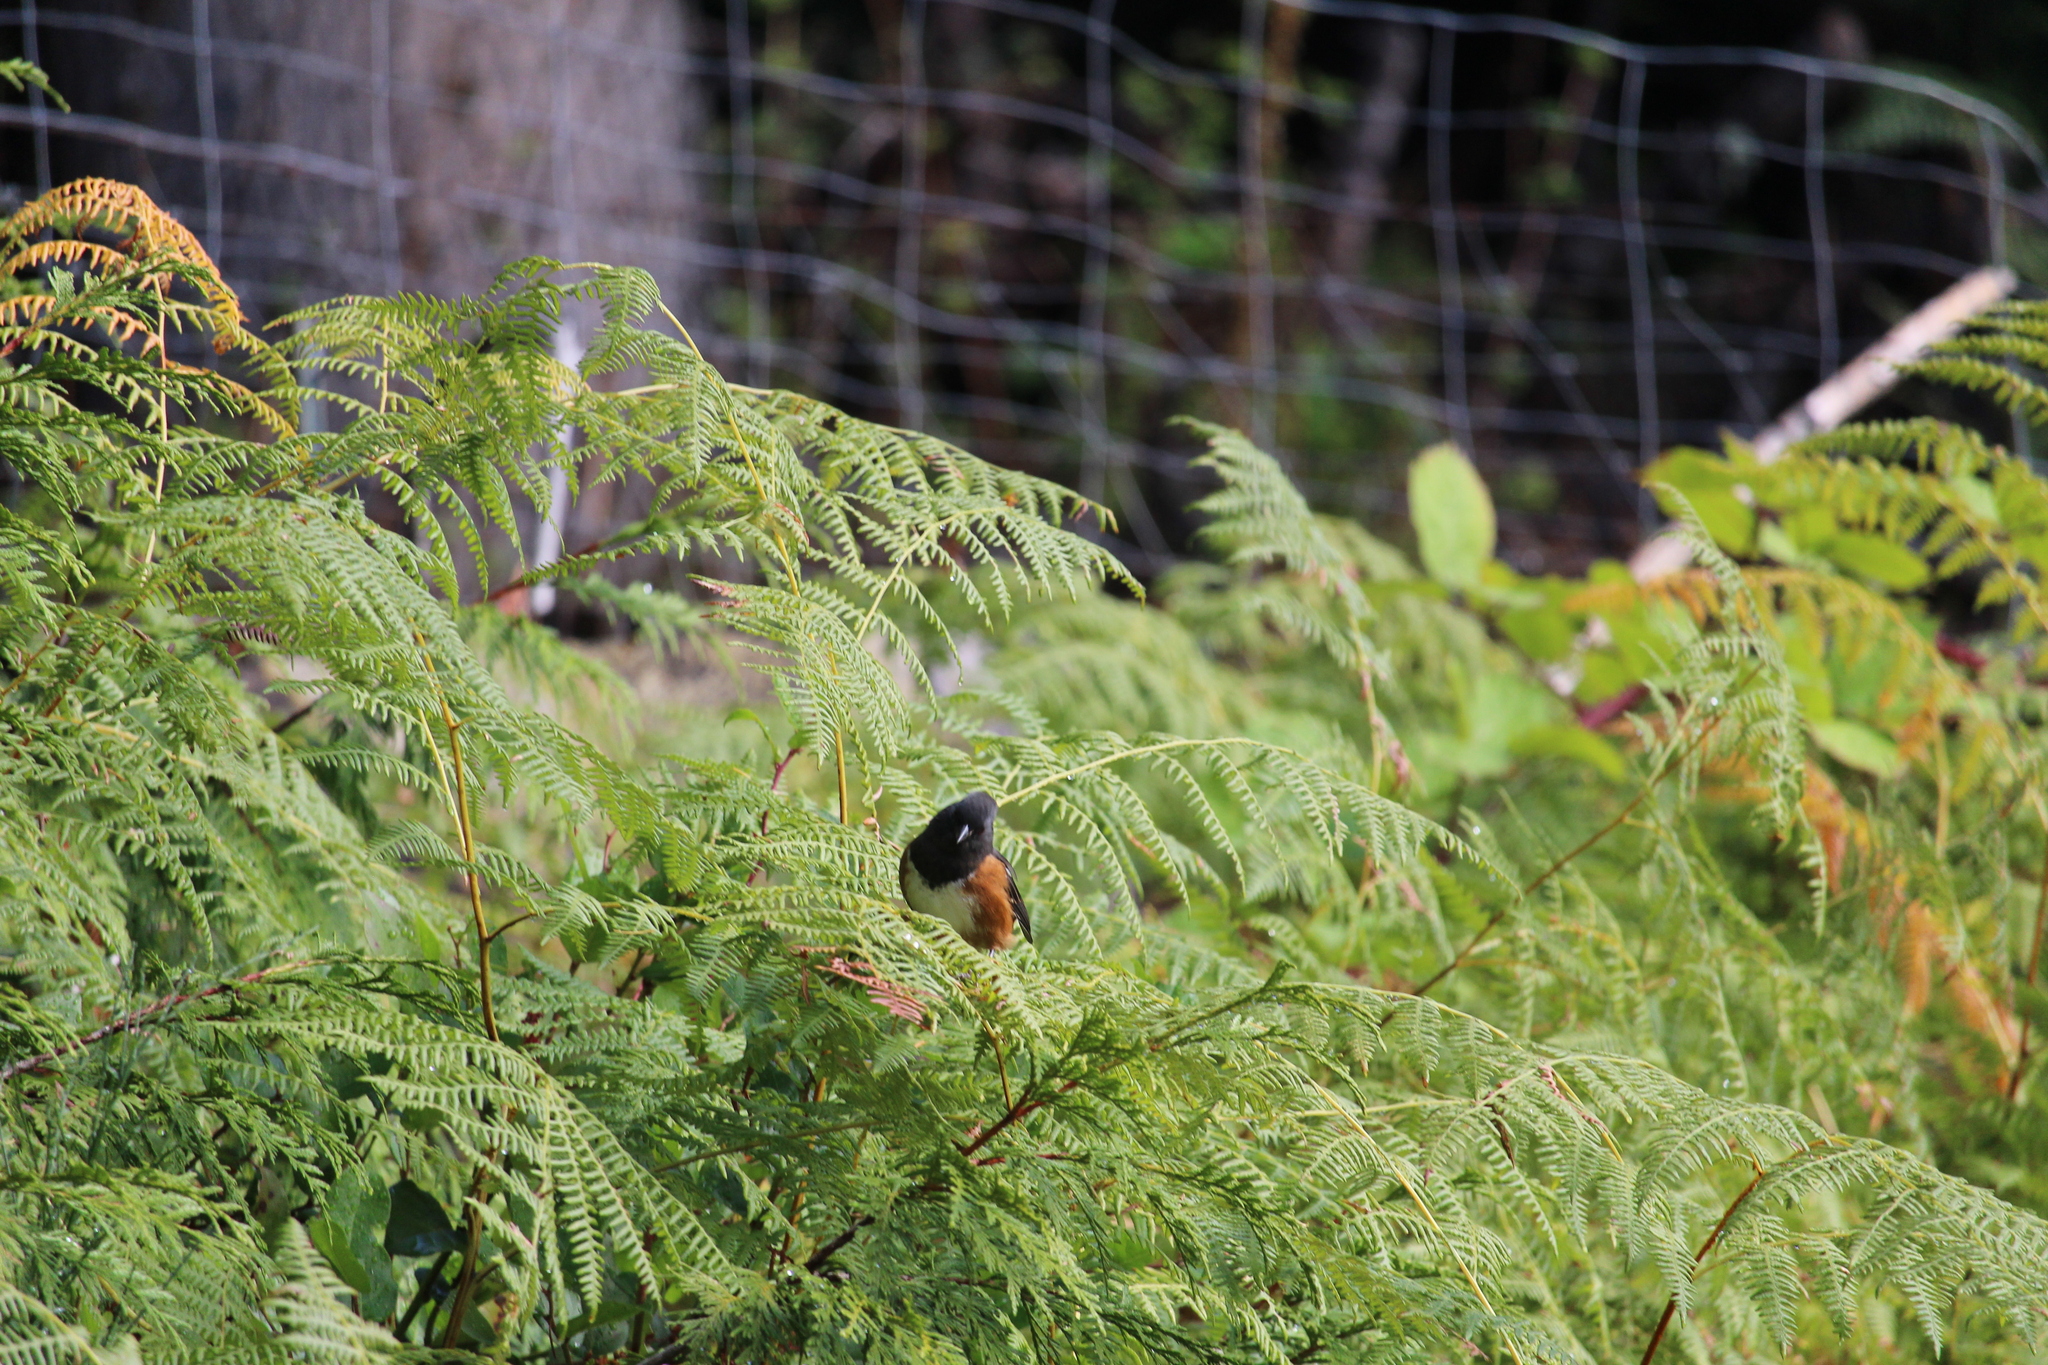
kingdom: Animalia
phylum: Chordata
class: Aves
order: Passeriformes
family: Passerellidae
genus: Pipilo
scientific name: Pipilo maculatus
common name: Spotted towhee
